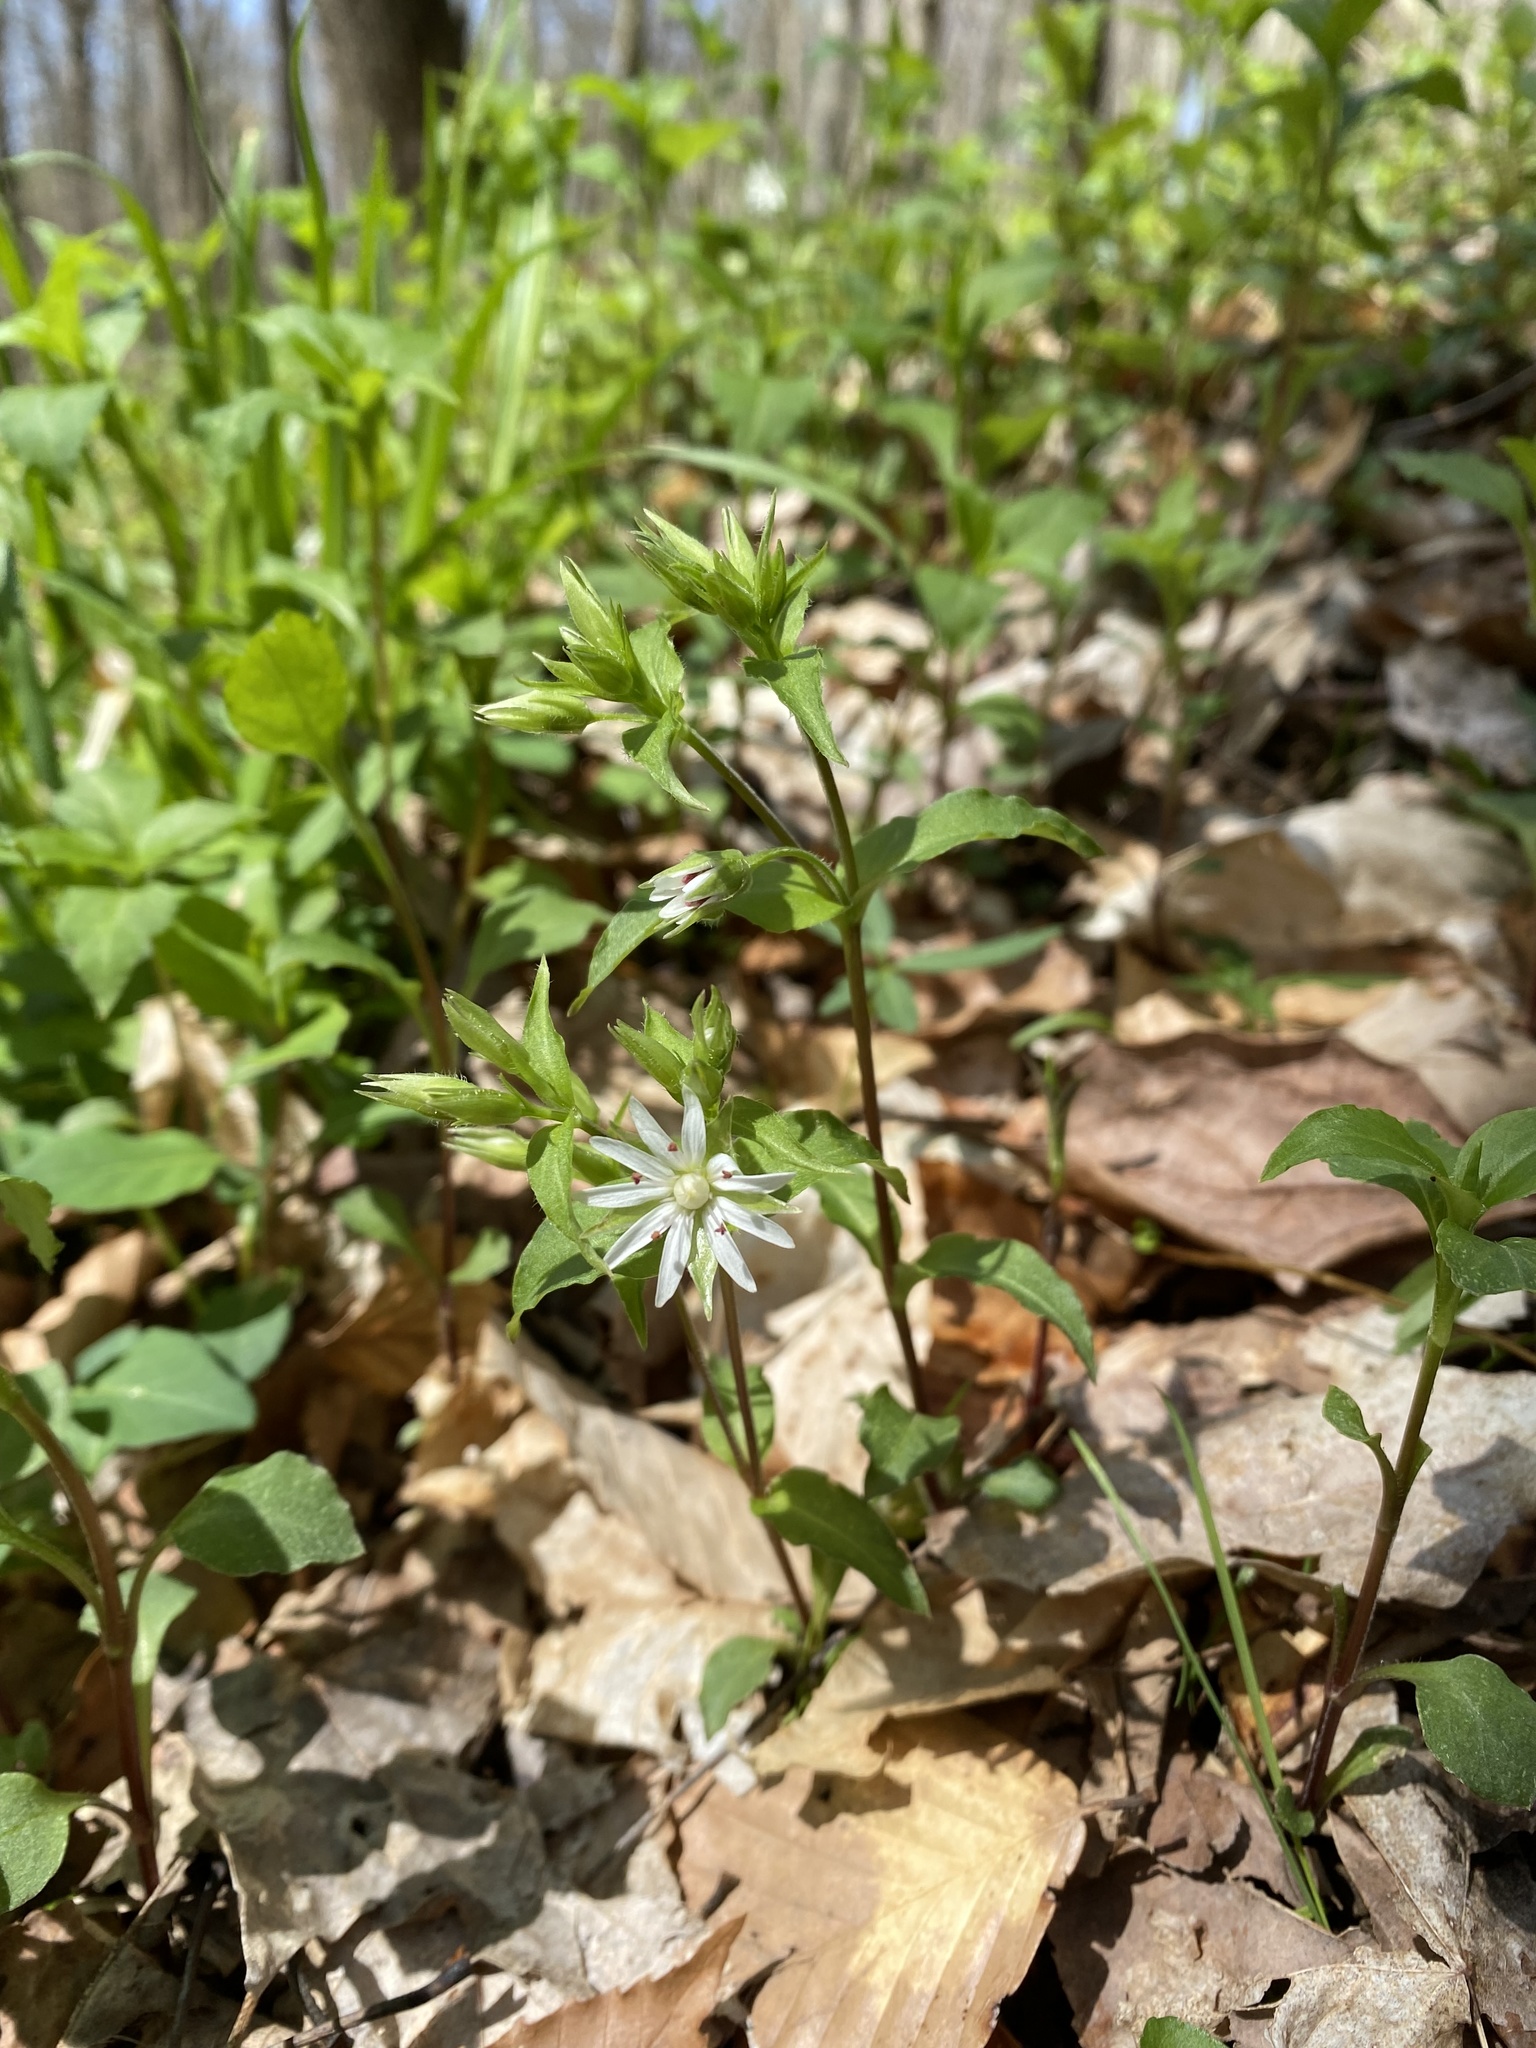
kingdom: Plantae
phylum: Tracheophyta
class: Magnoliopsida
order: Caryophyllales
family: Caryophyllaceae
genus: Stellaria
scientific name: Stellaria pubera
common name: Star chickweed
